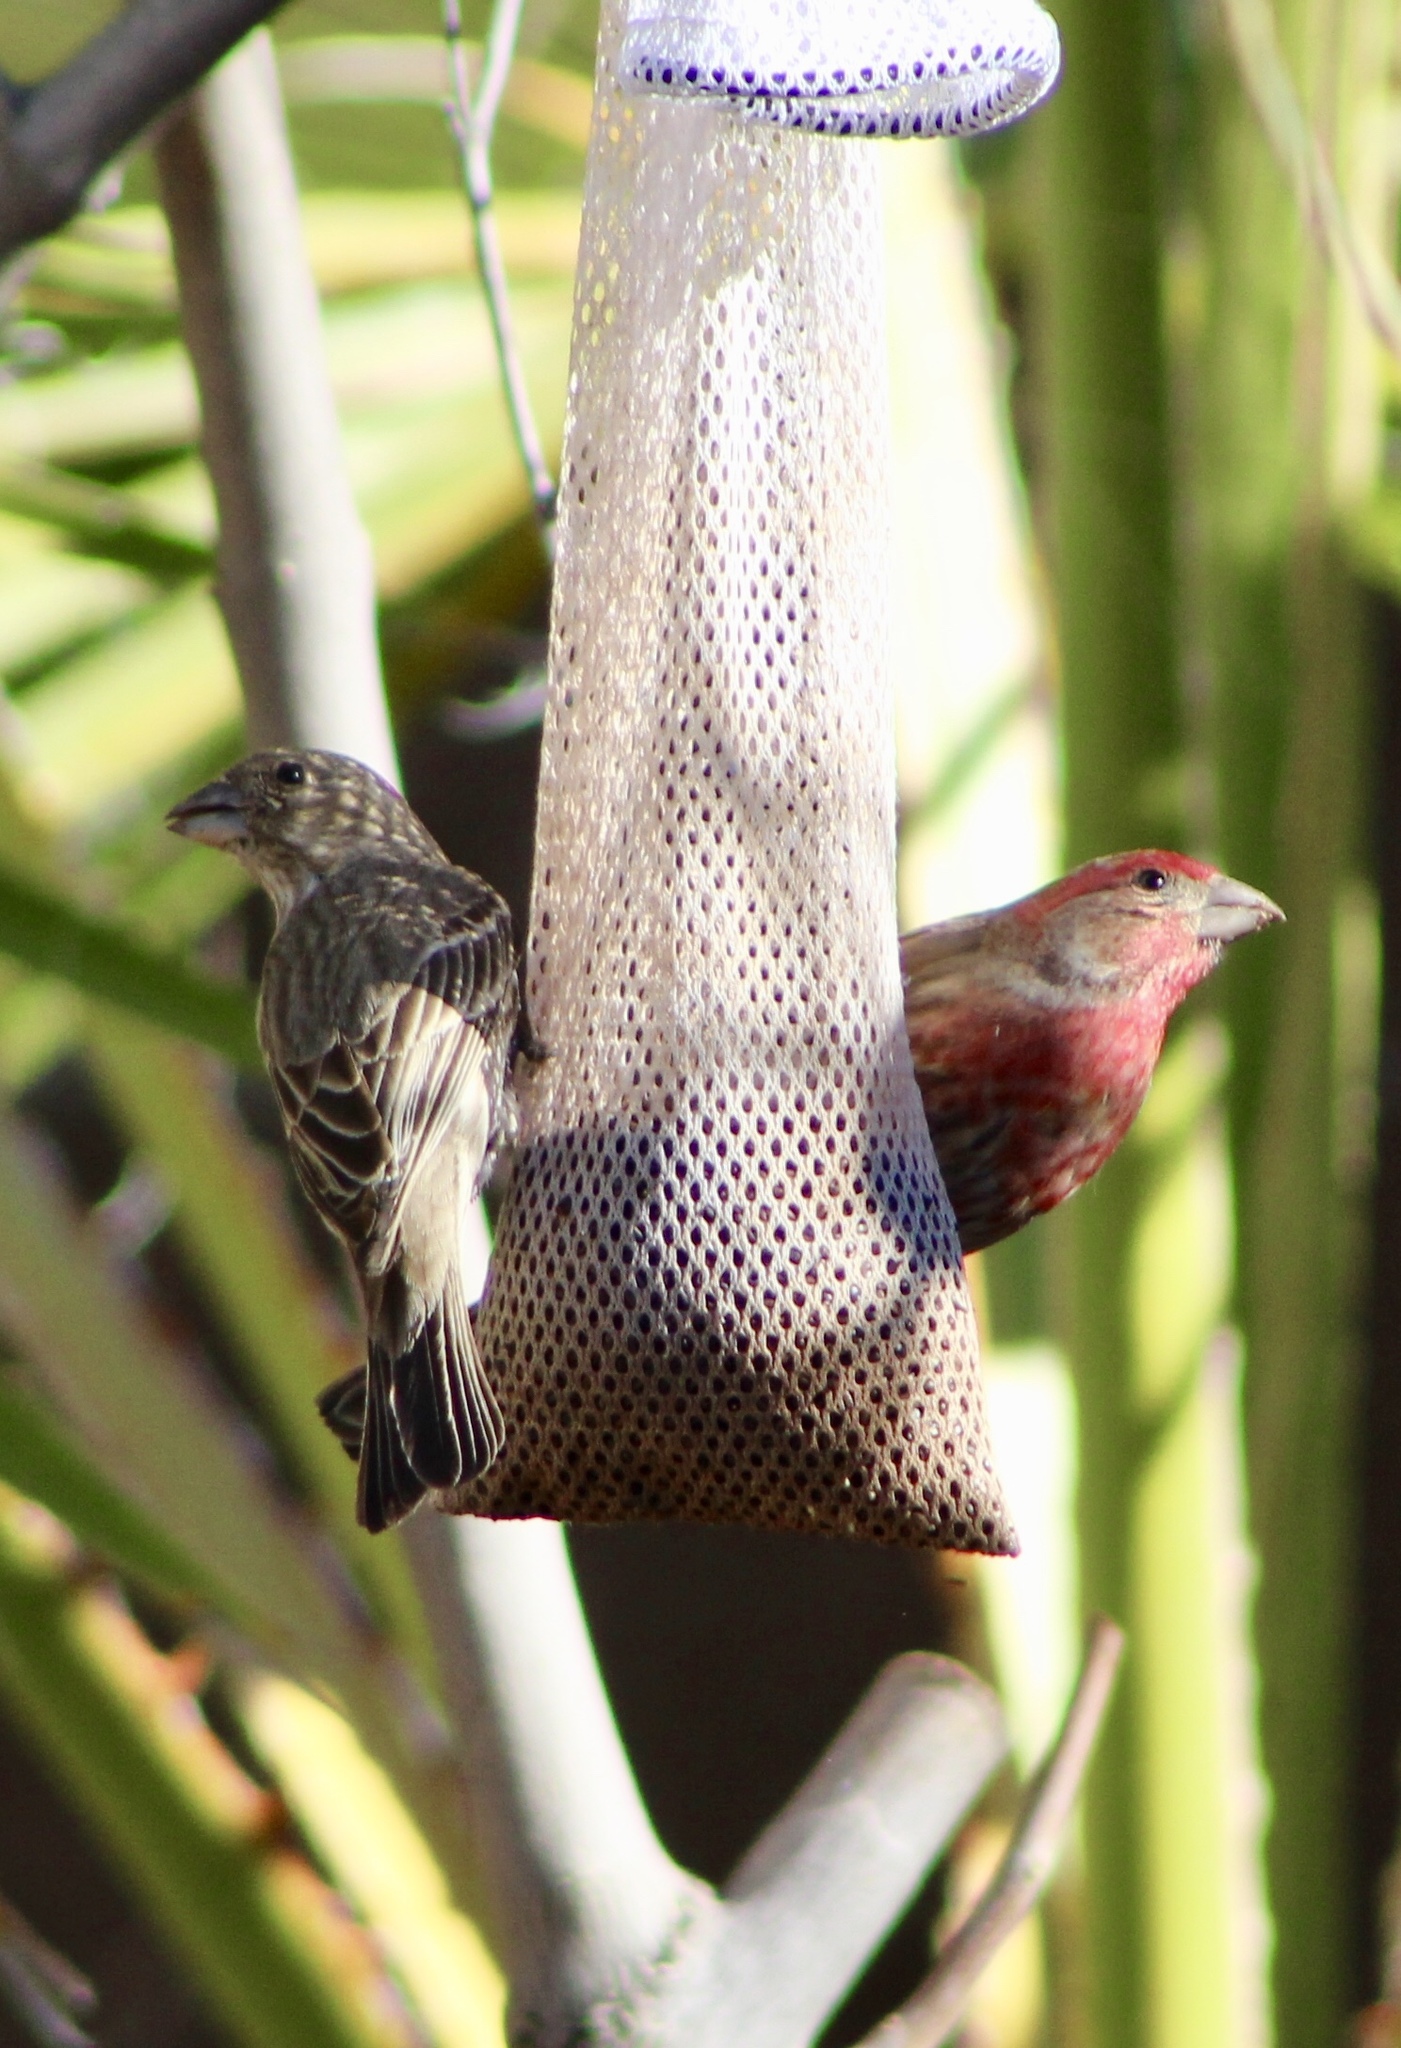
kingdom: Animalia
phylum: Chordata
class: Aves
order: Passeriformes
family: Fringillidae
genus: Haemorhous
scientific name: Haemorhous mexicanus
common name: House finch
